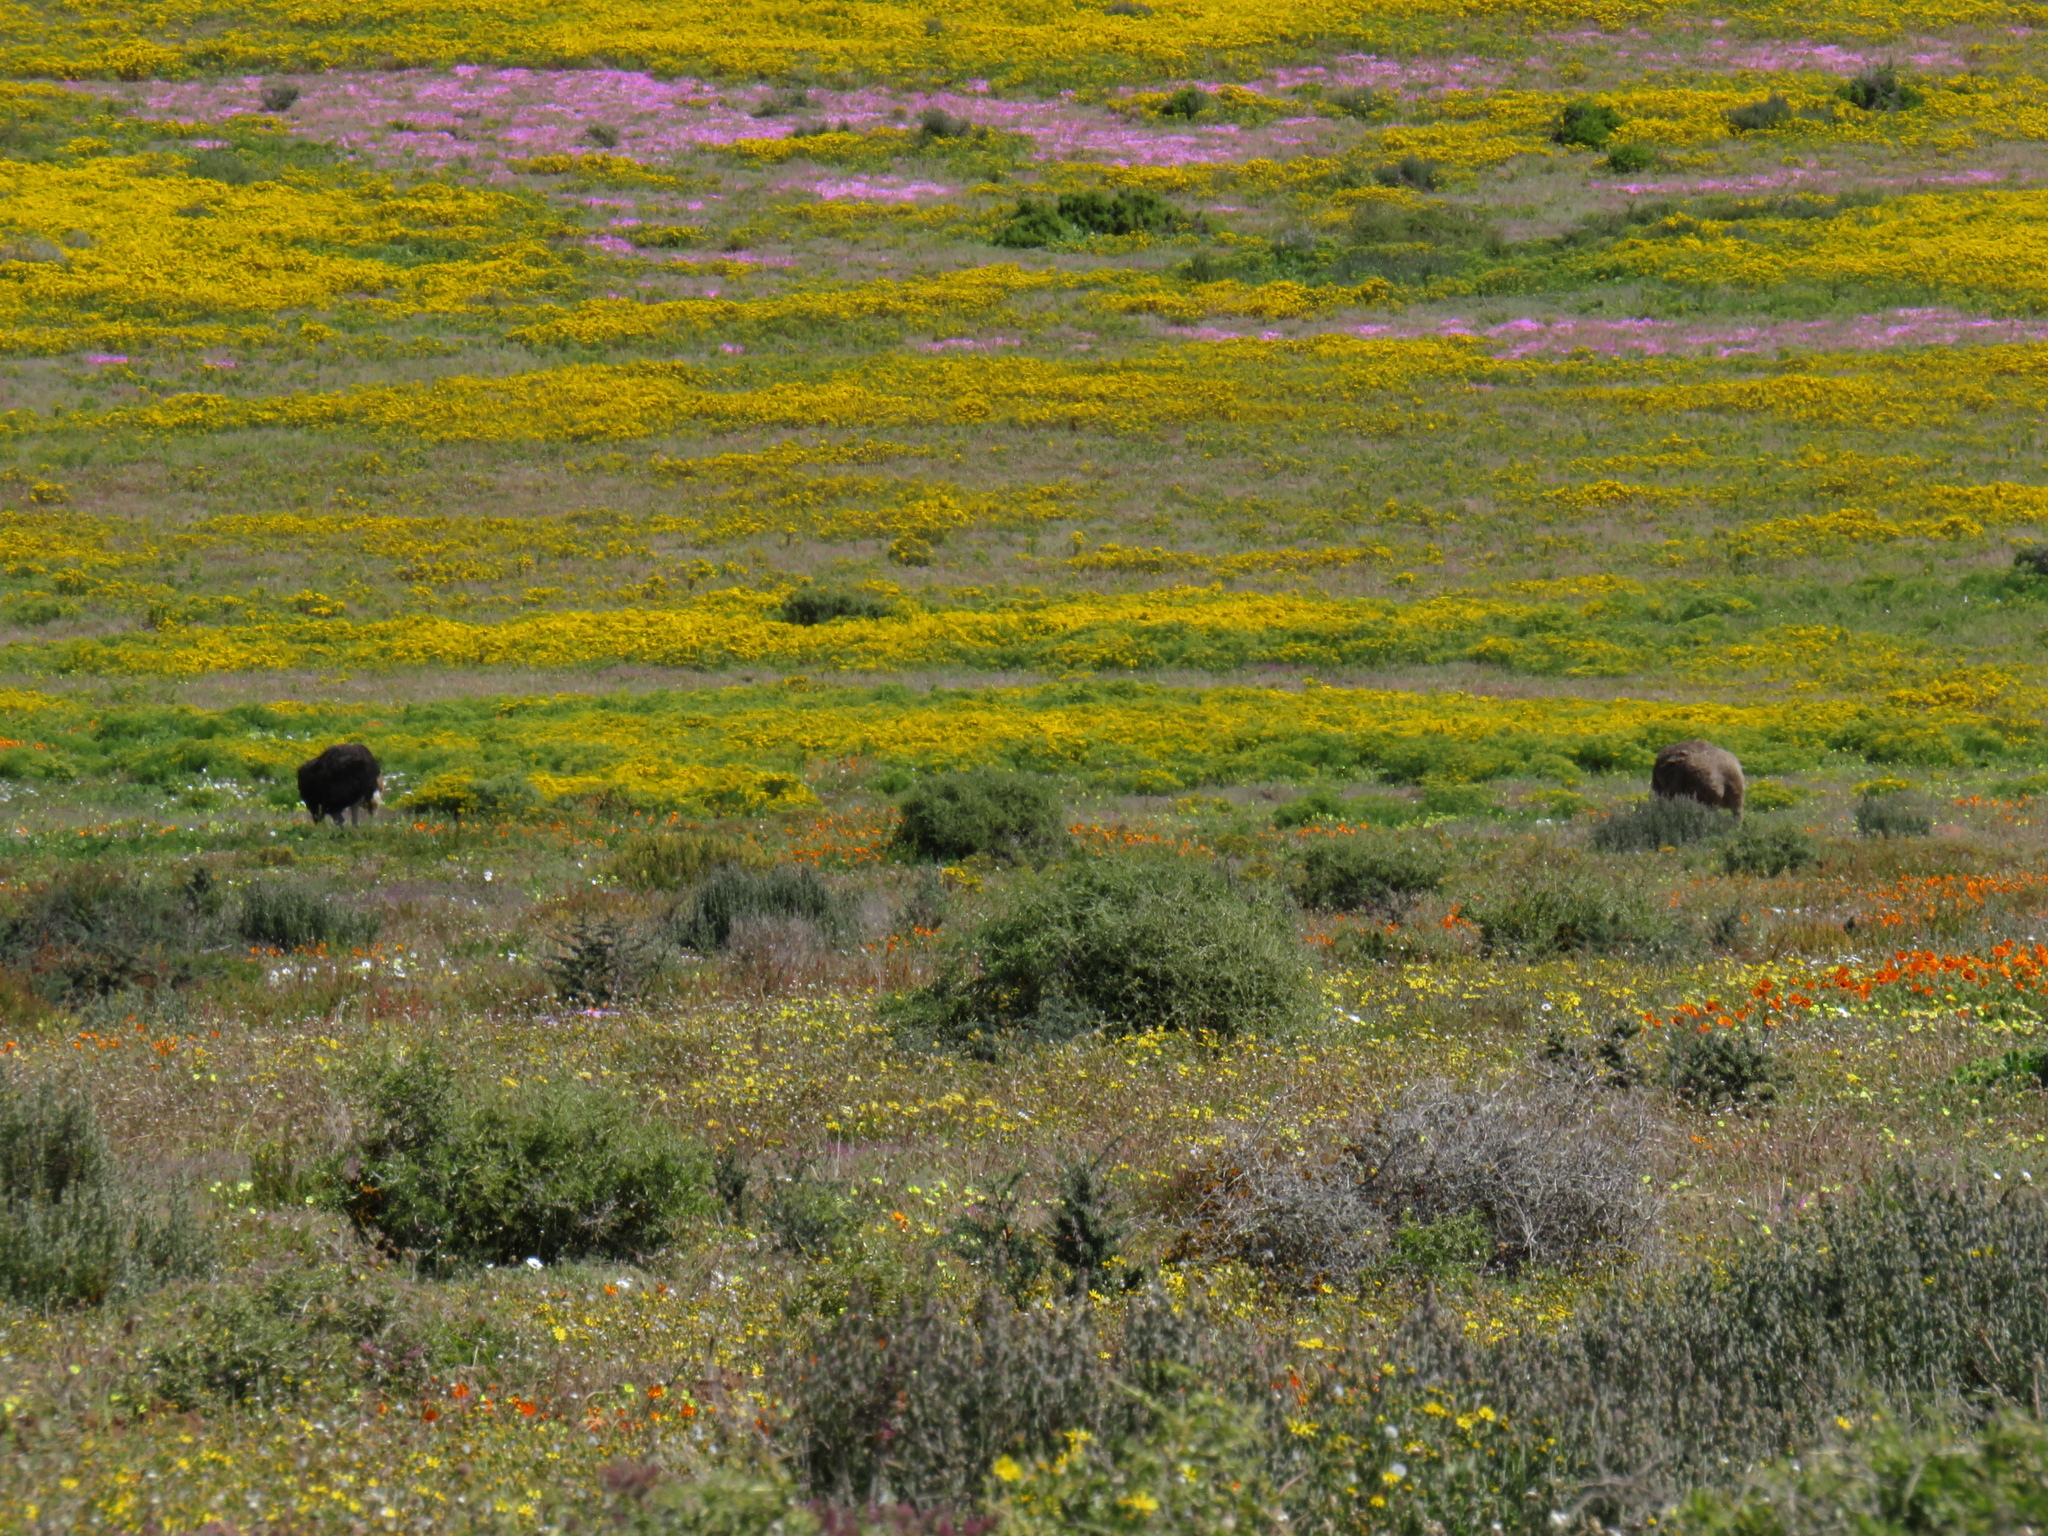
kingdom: Animalia
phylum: Chordata
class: Aves
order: Struthioniformes
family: Struthionidae
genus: Struthio
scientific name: Struthio camelus
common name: Common ostrich
